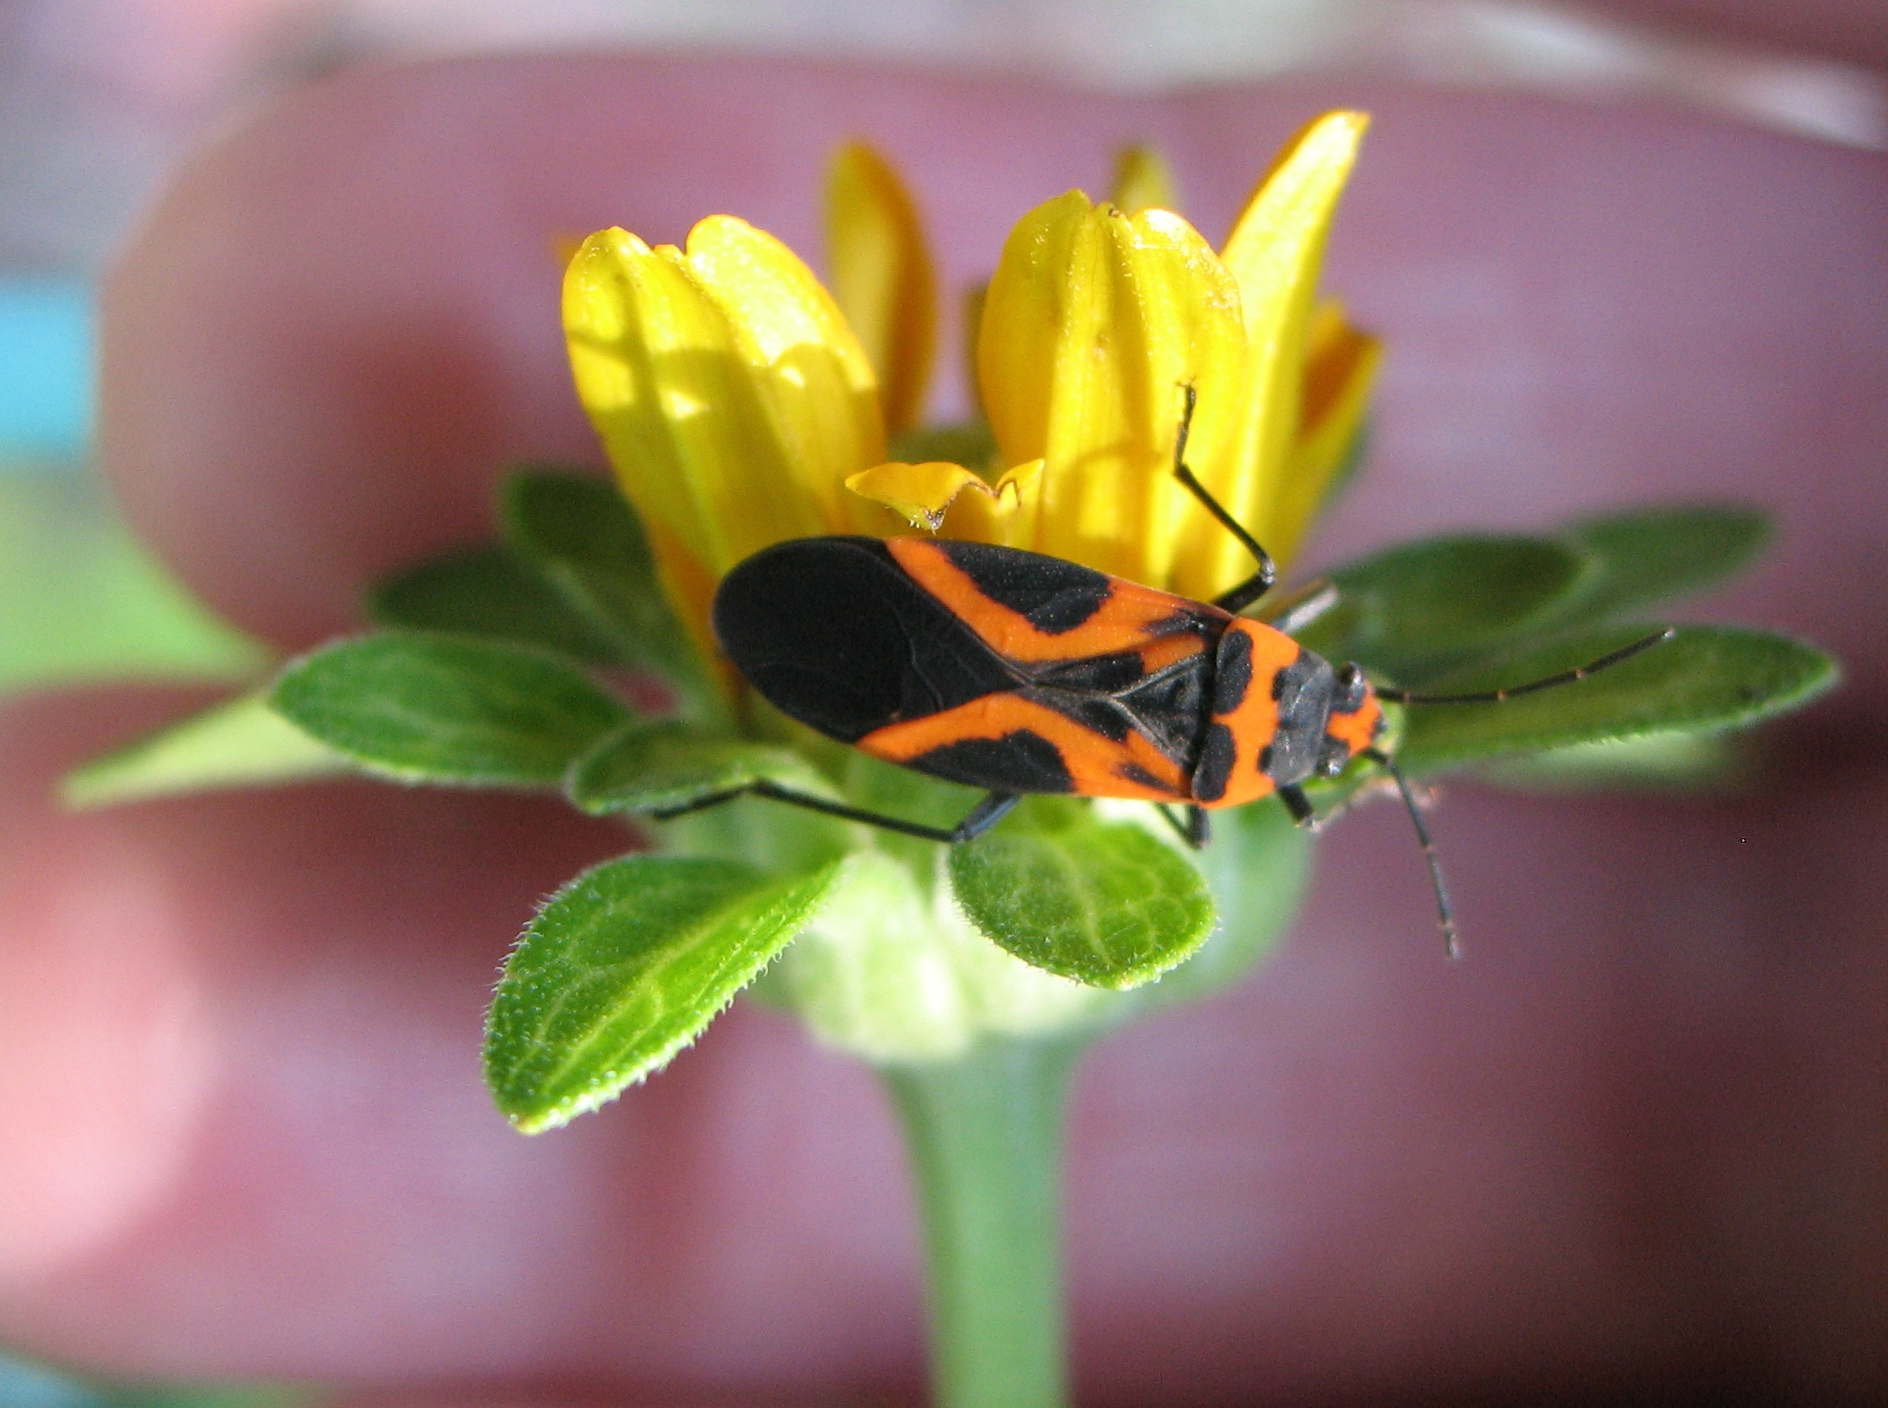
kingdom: Animalia
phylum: Arthropoda
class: Insecta
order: Hemiptera
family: Lygaeidae
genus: Lygaeus
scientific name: Lygaeus turcicus
